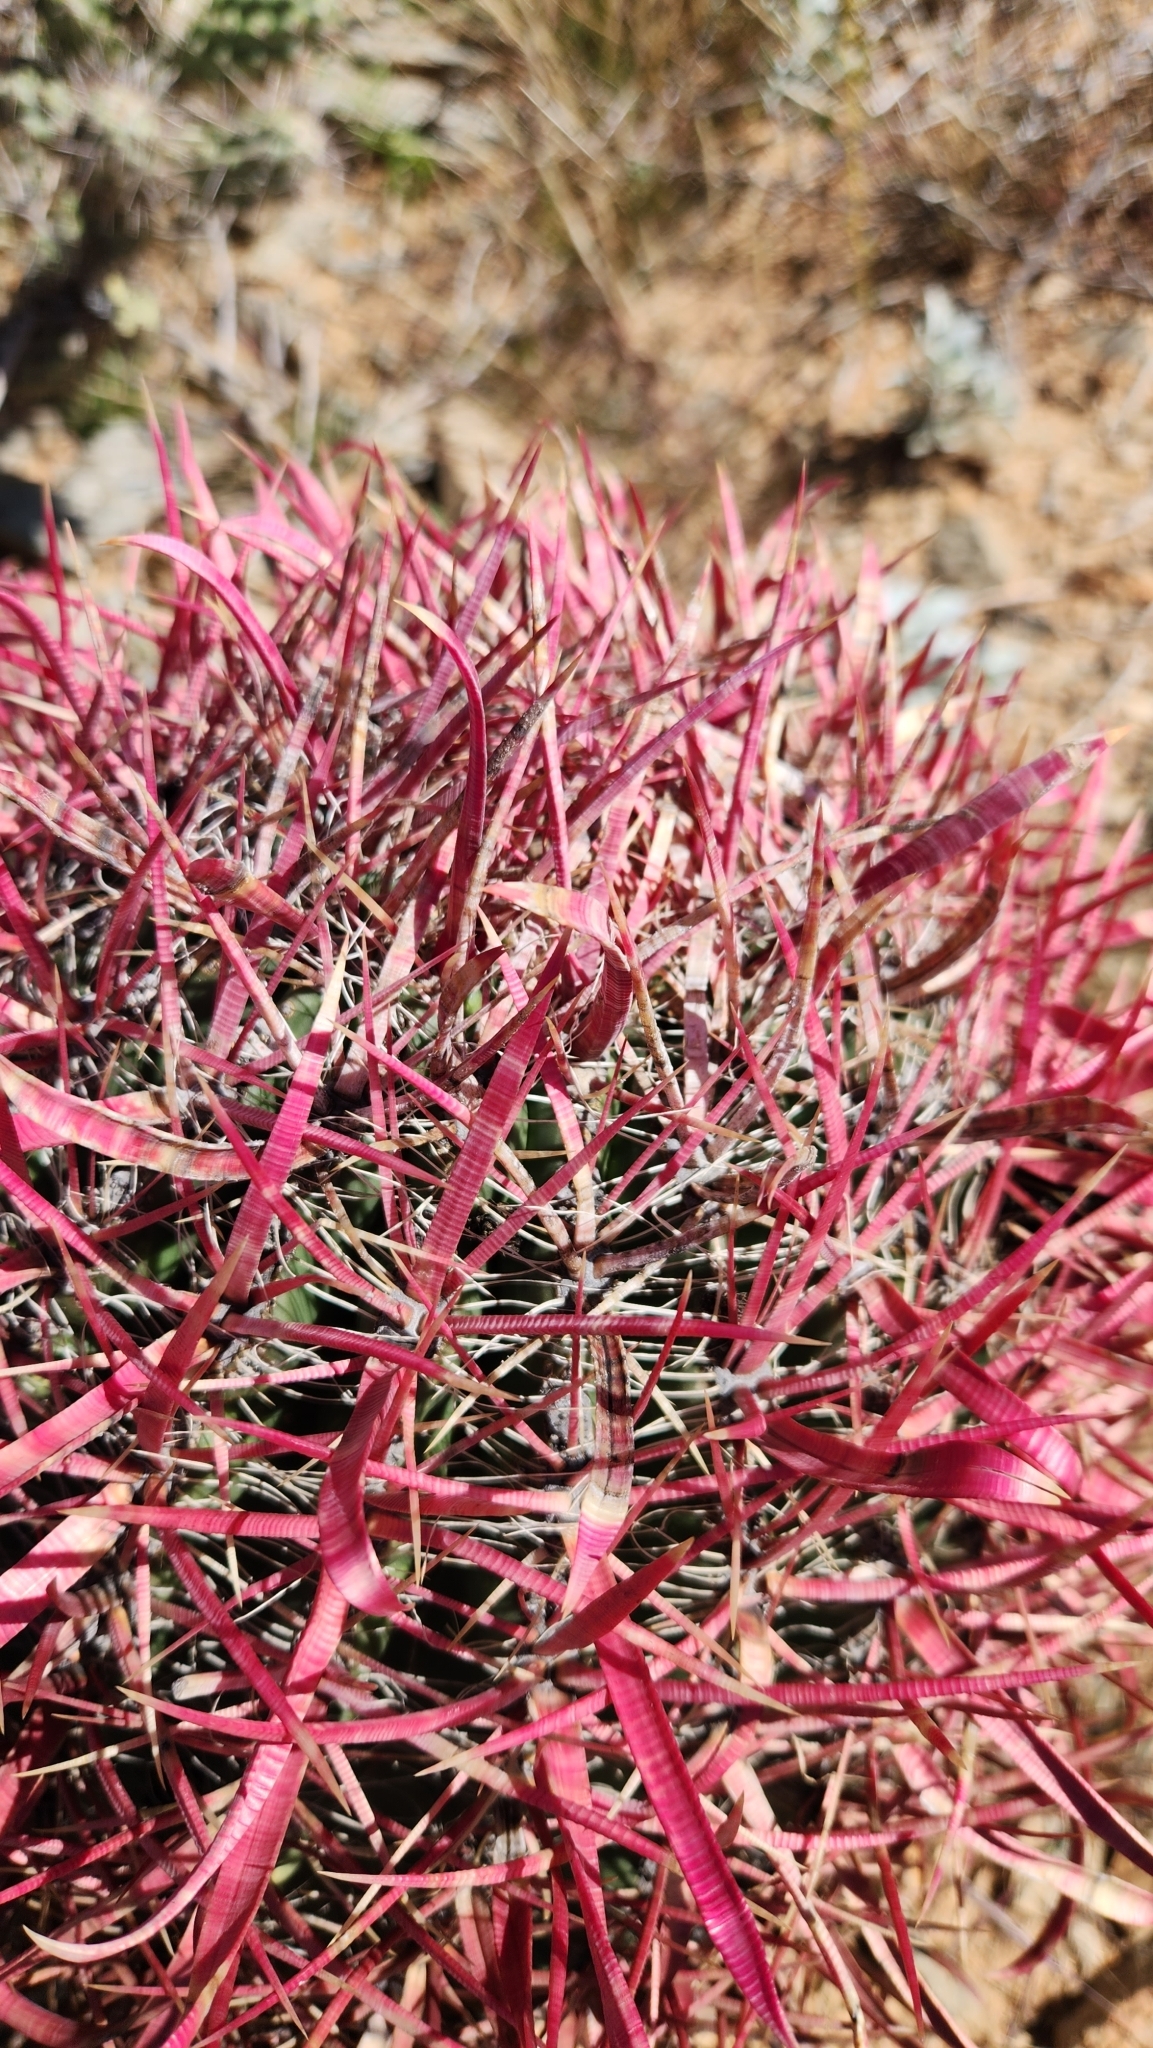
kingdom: Plantae
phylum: Tracheophyta
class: Magnoliopsida
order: Caryophyllales
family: Cactaceae
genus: Ferocactus
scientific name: Ferocactus cylindraceus
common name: California barrel cactus
